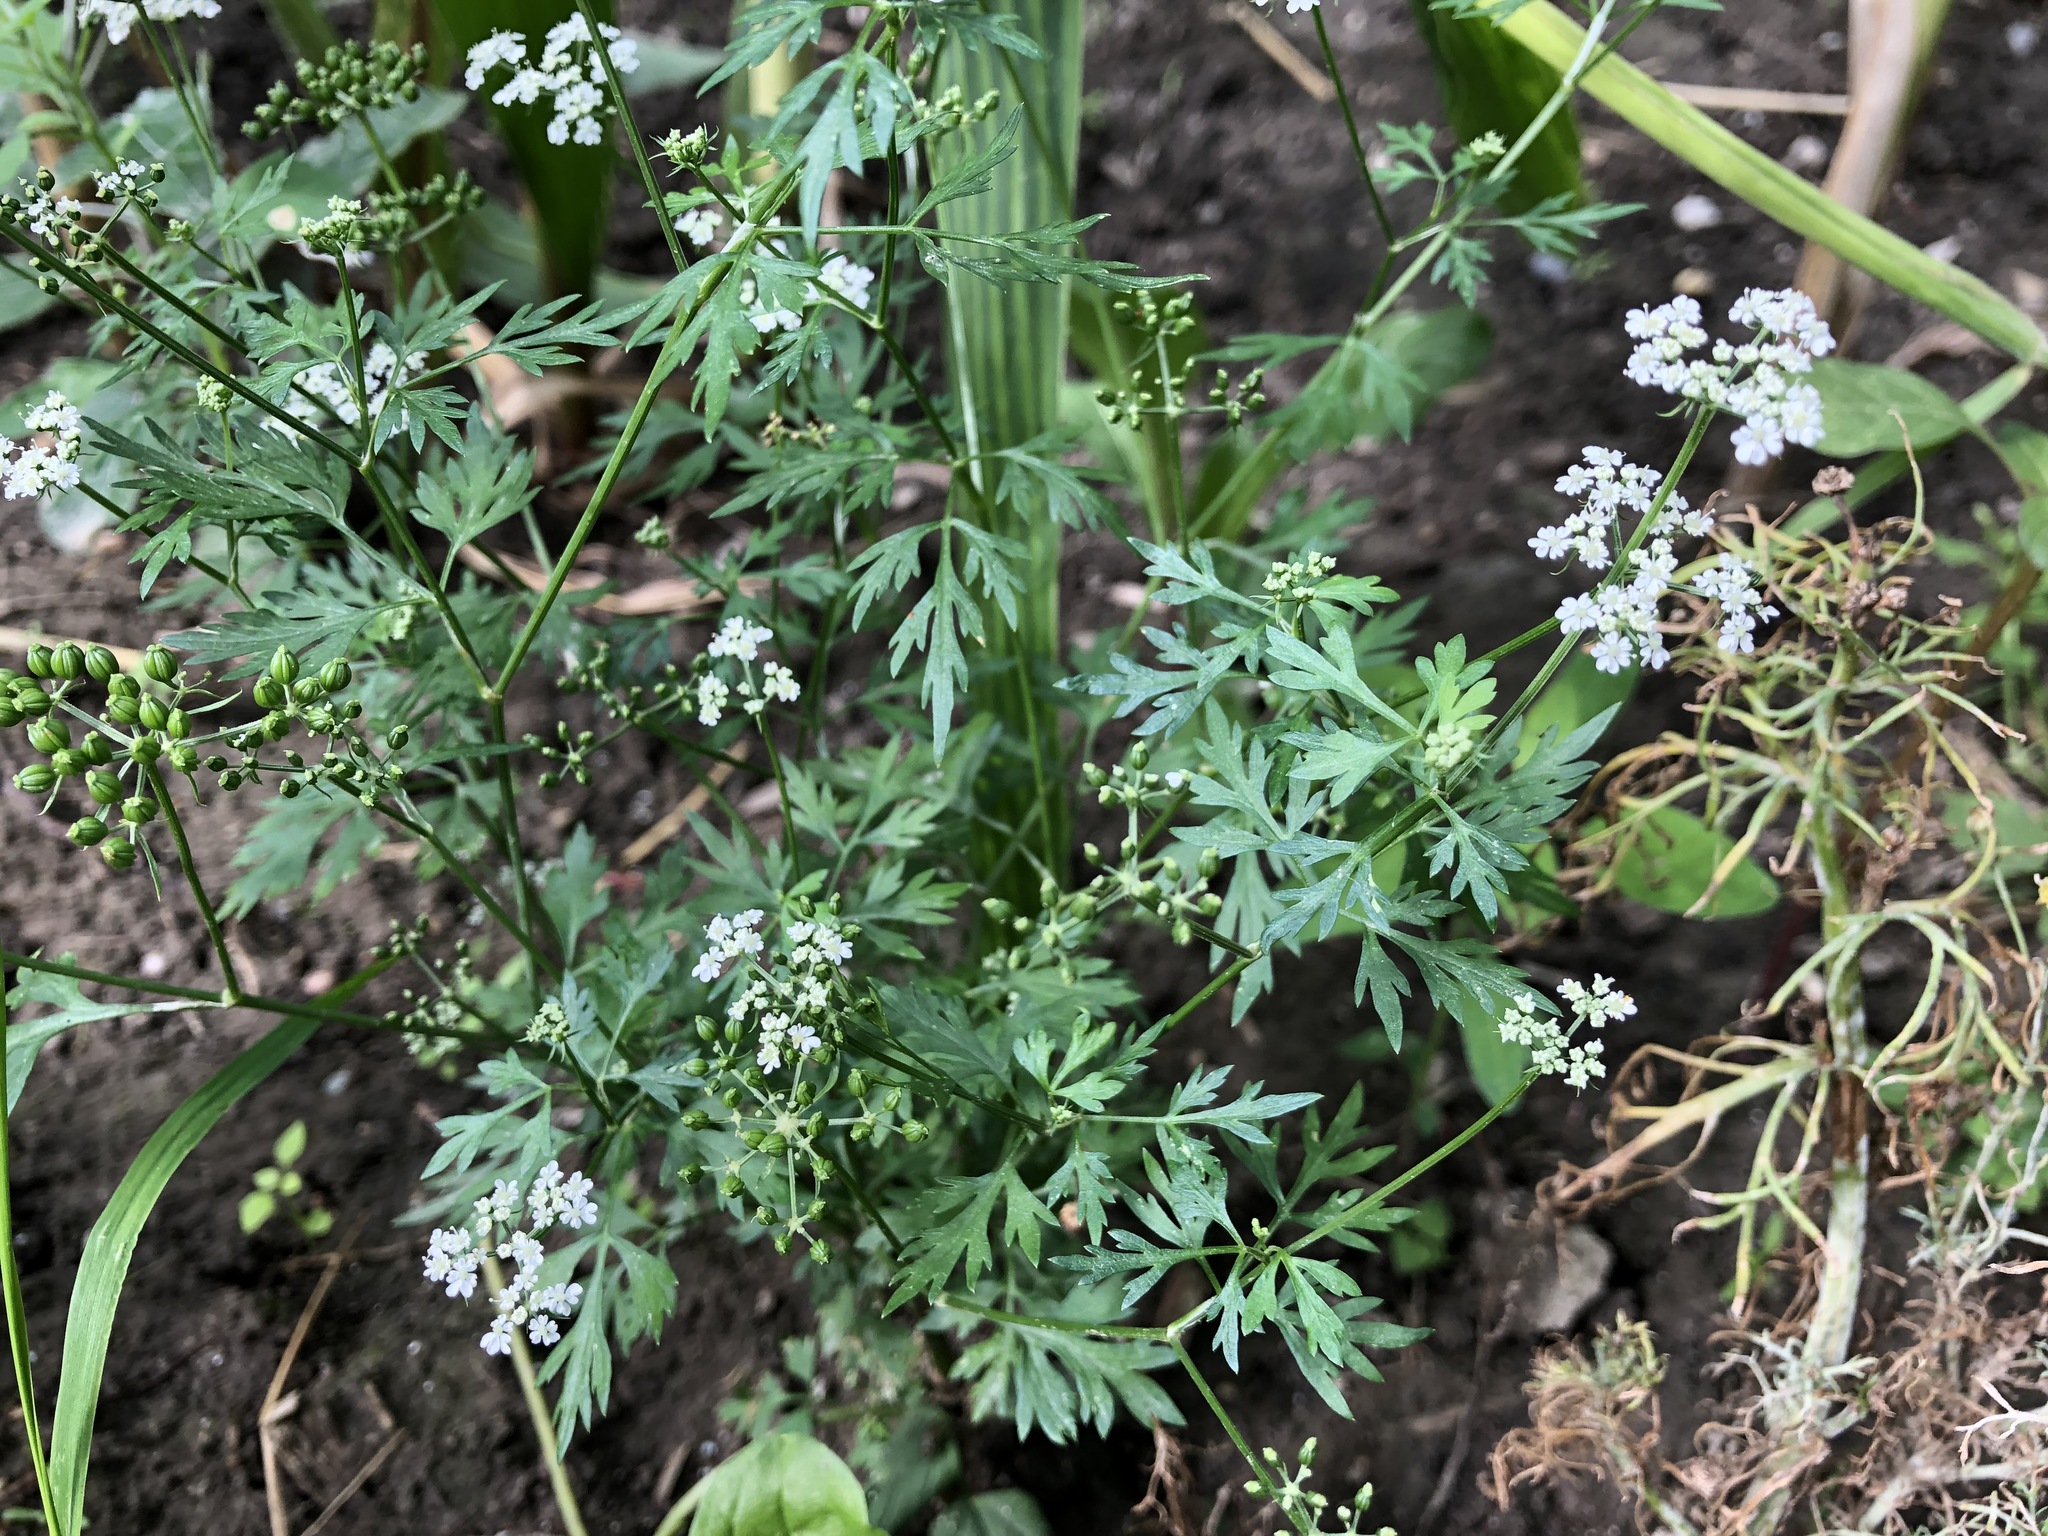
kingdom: Plantae
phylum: Tracheophyta
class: Magnoliopsida
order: Apiales
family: Apiaceae
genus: Aethusa
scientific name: Aethusa cynapium
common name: Fool's parsley
